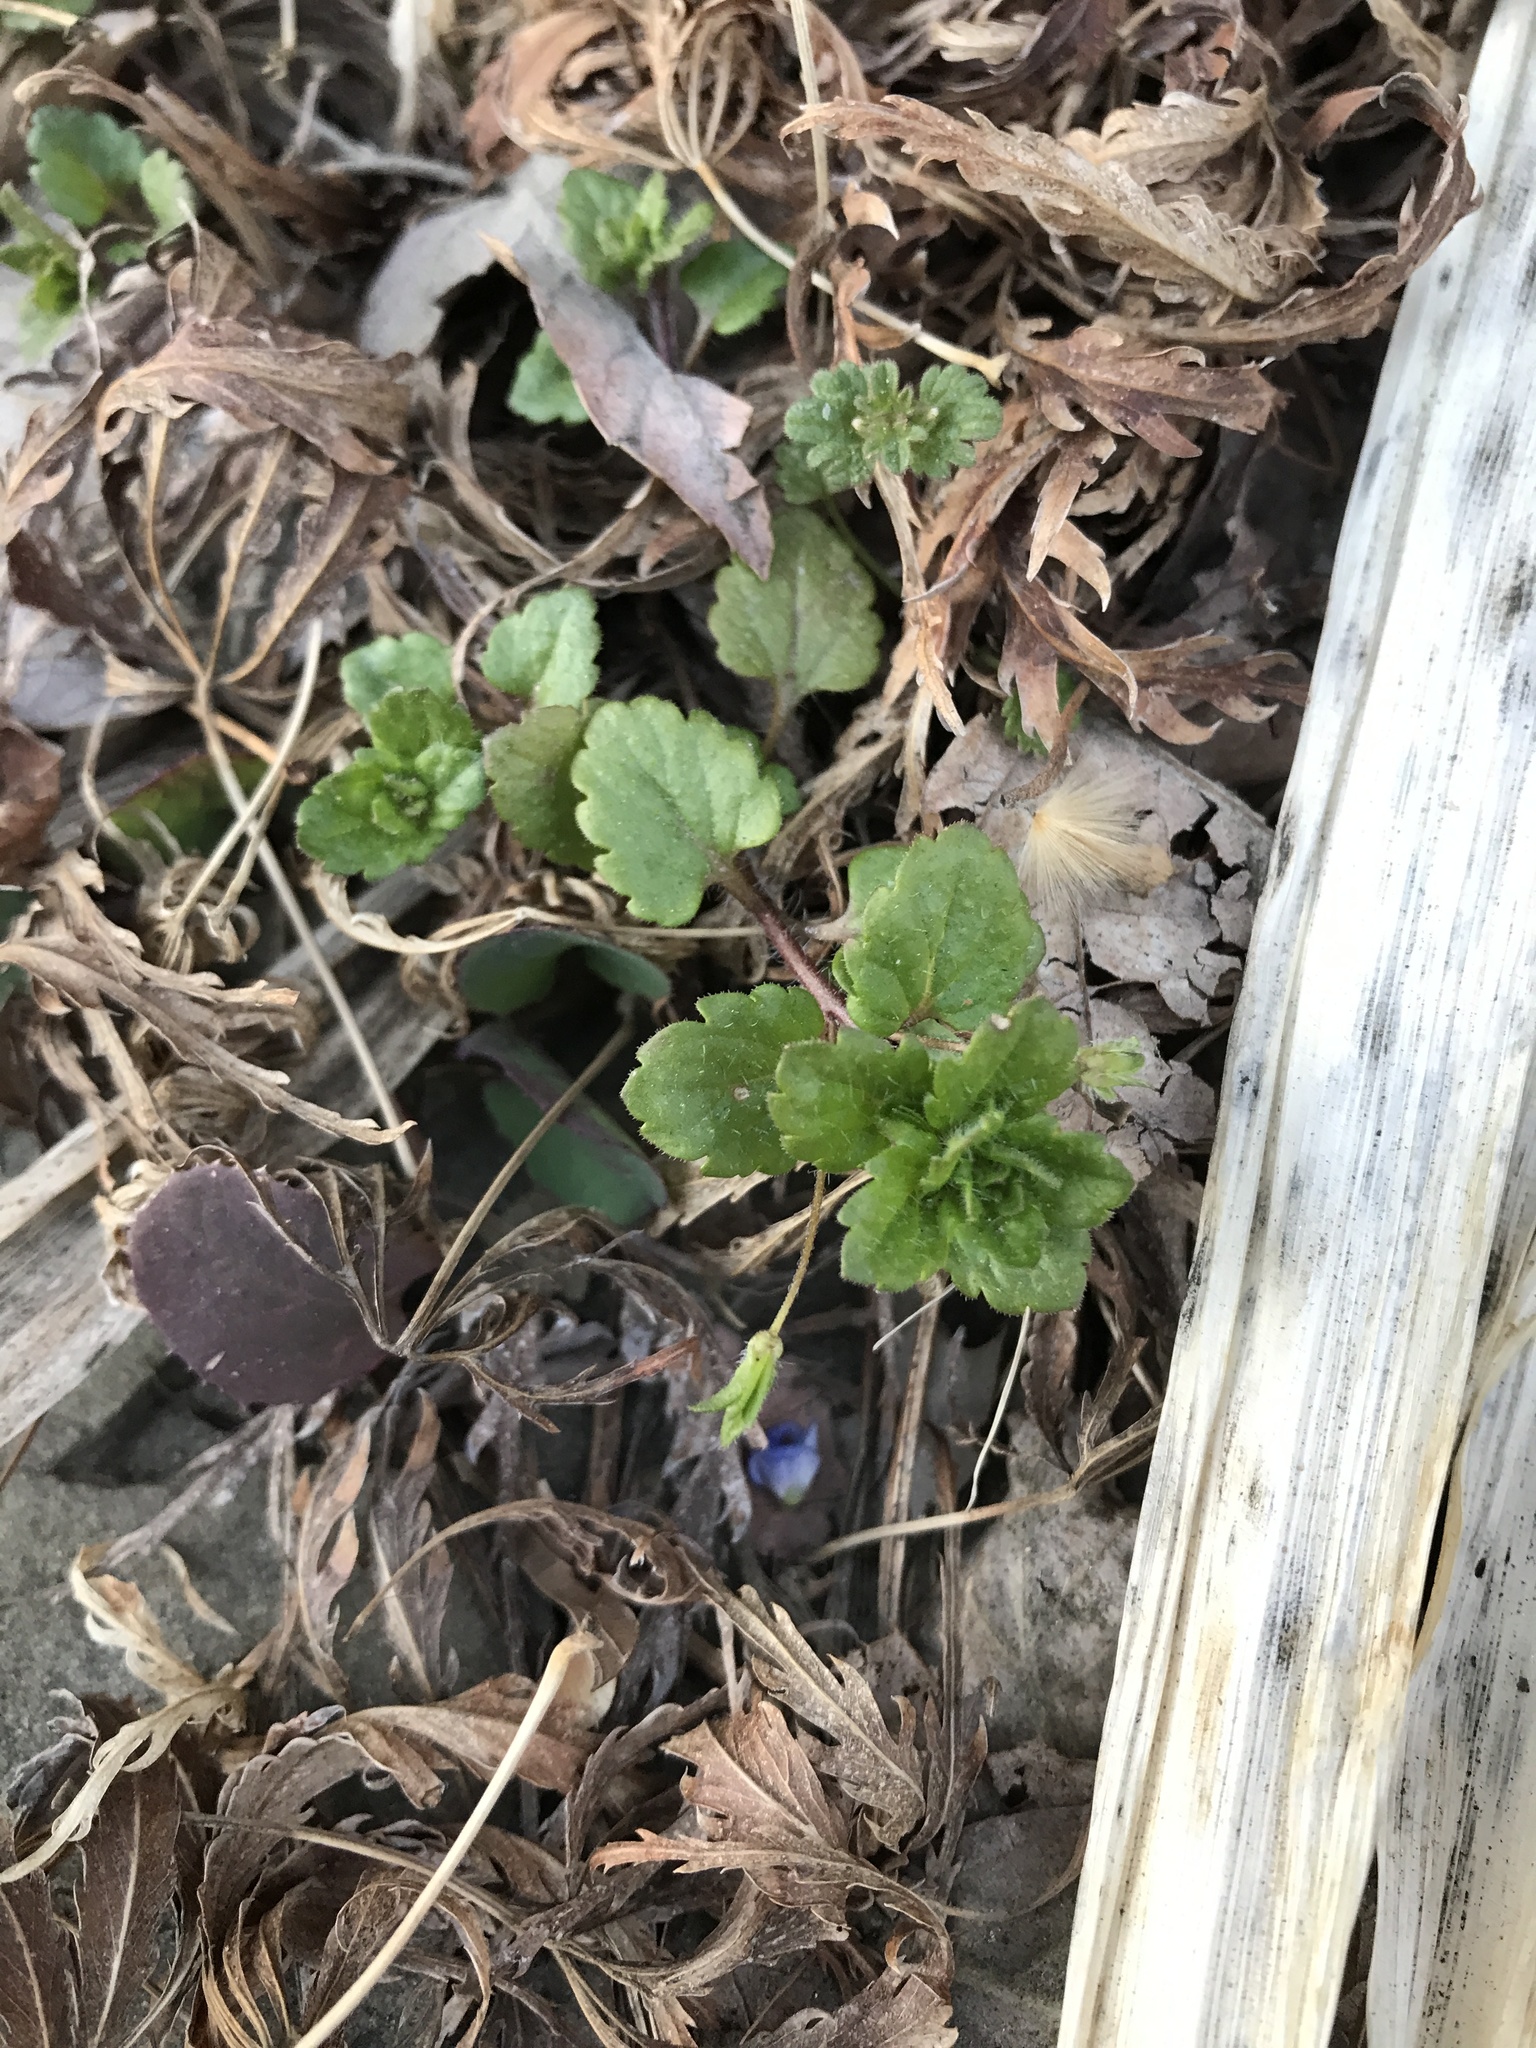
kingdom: Plantae
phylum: Tracheophyta
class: Magnoliopsida
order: Lamiales
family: Plantaginaceae
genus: Veronica
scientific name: Veronica persica
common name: Common field-speedwell
